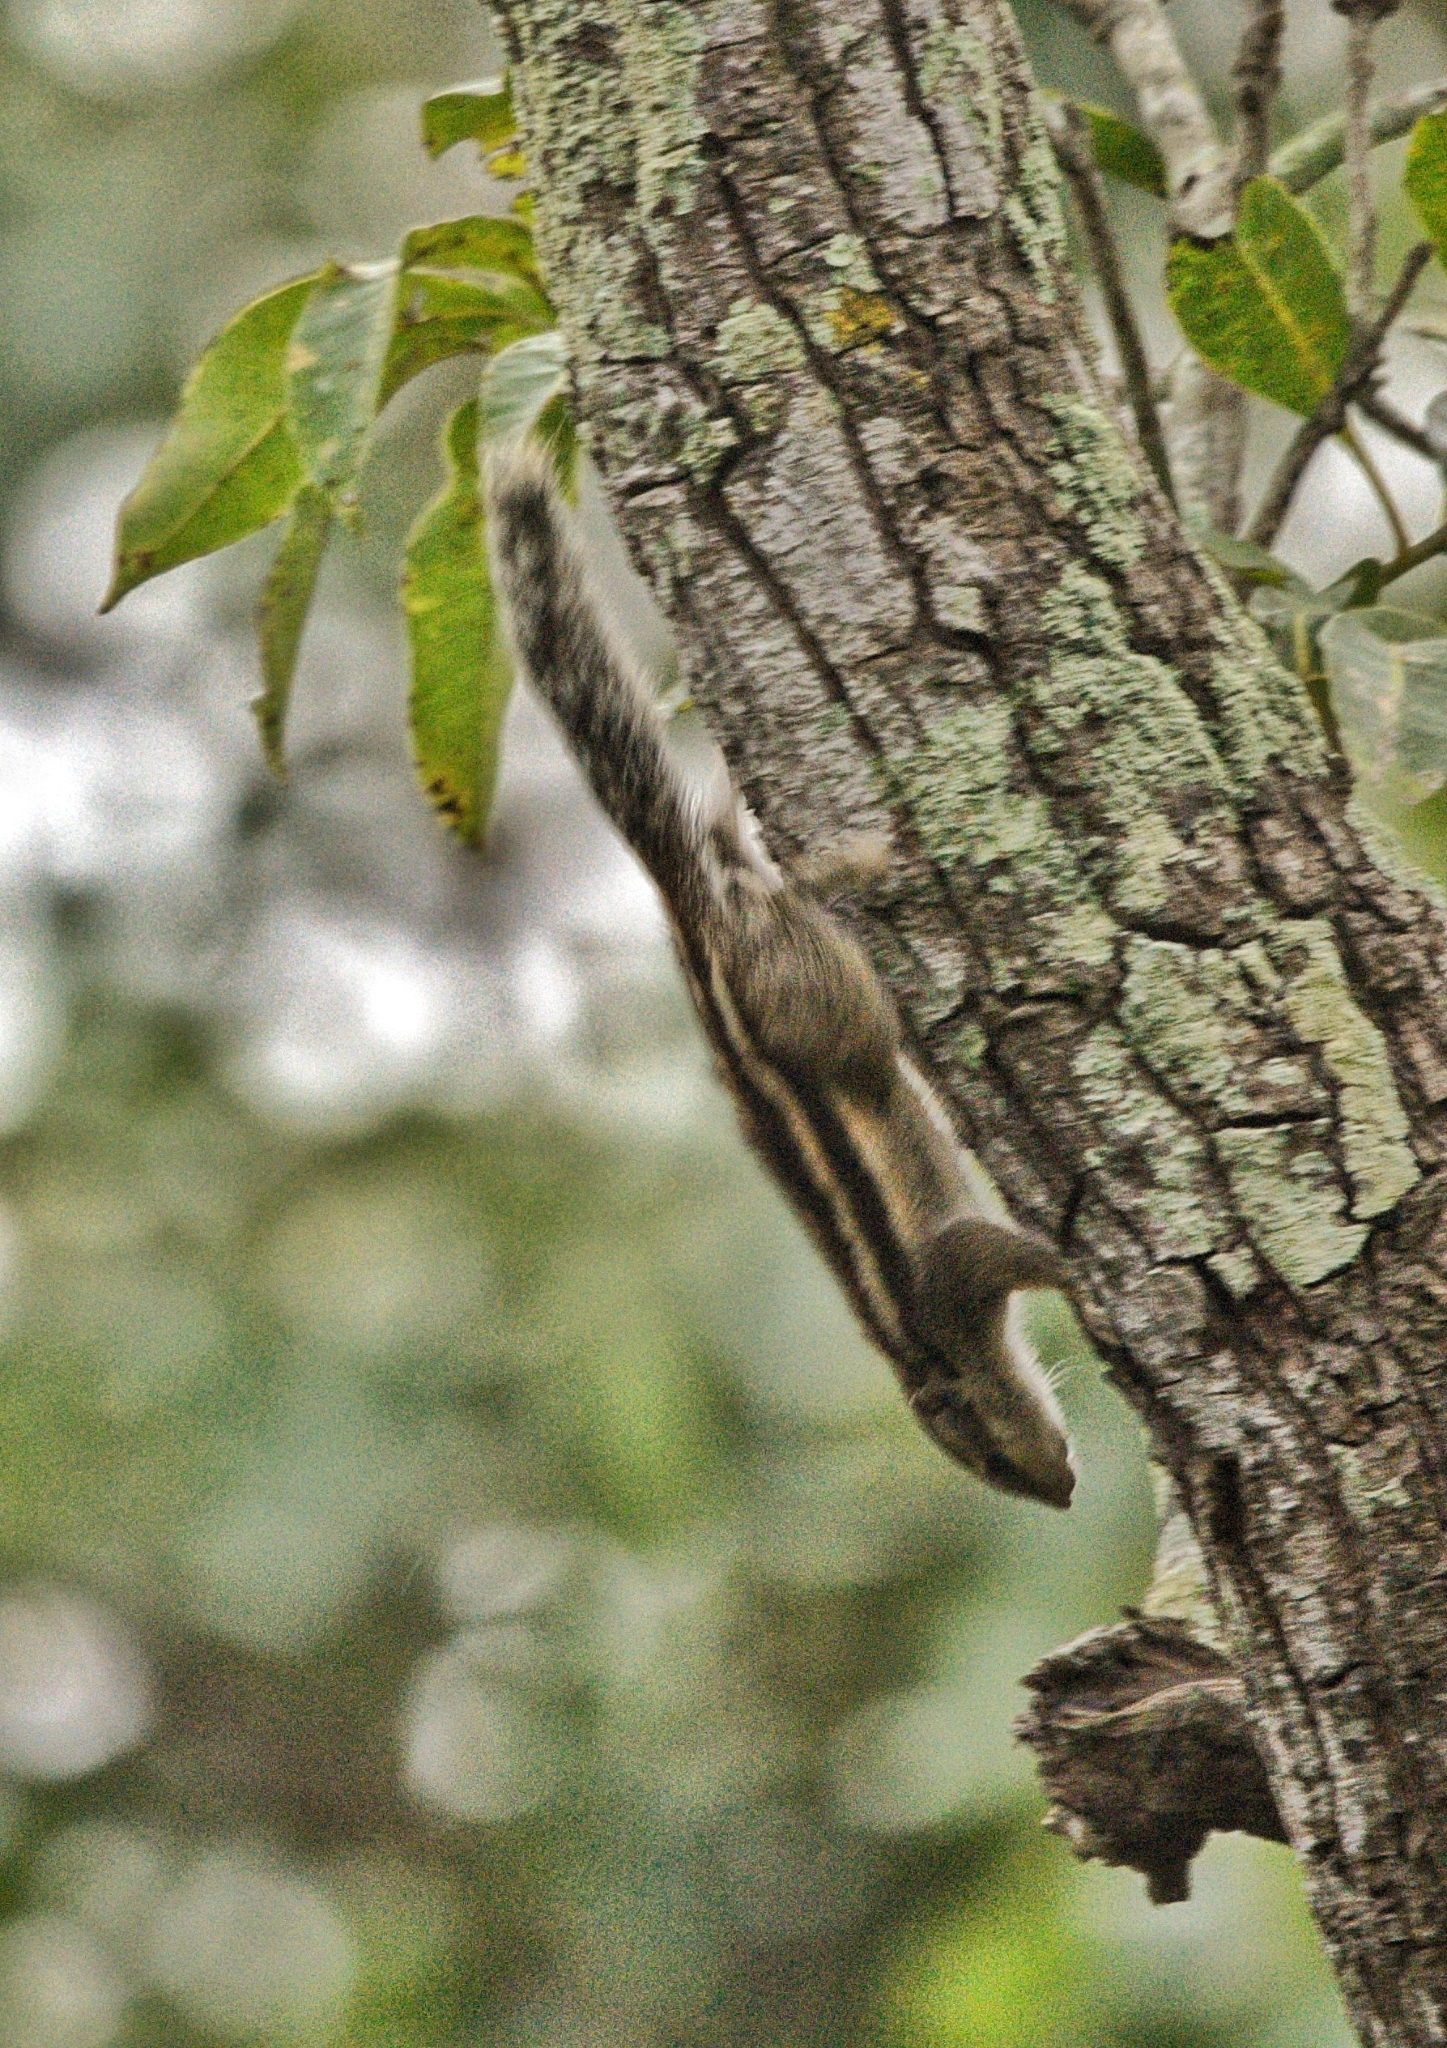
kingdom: Animalia
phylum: Chordata
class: Mammalia
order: Rodentia
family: Sciuridae
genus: Funambulus
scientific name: Funambulus pennantii
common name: Northern palm squirrel
